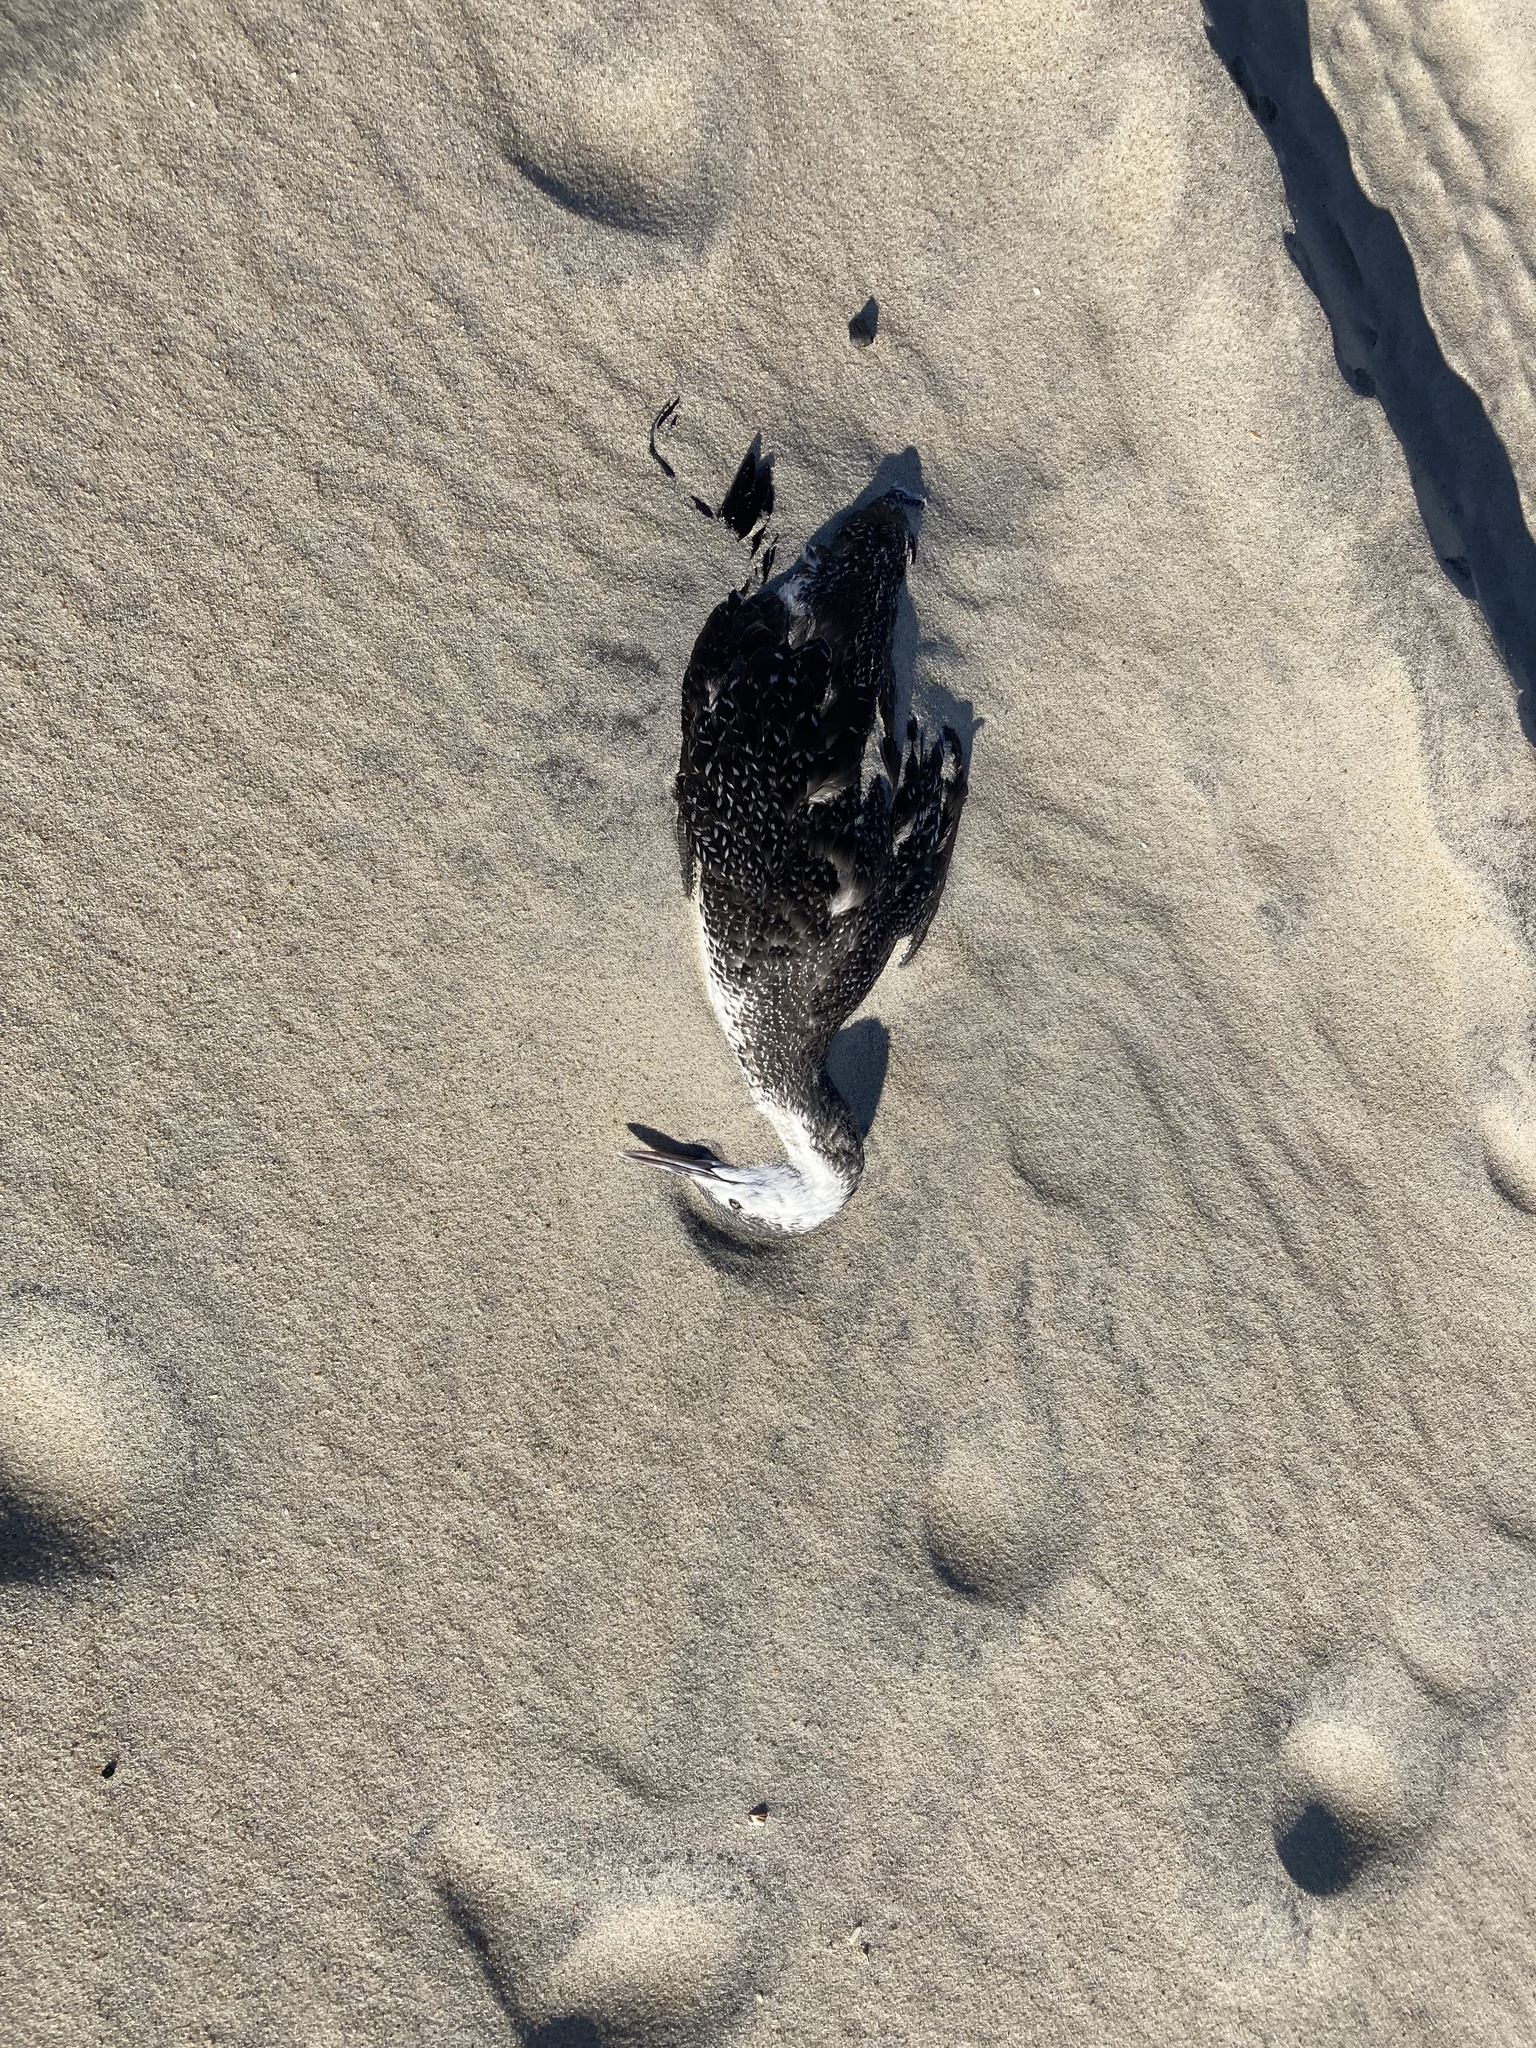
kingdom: Animalia
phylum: Chordata
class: Aves
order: Gaviiformes
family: Gaviidae
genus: Gavia
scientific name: Gavia stellata
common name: Red-throated loon
